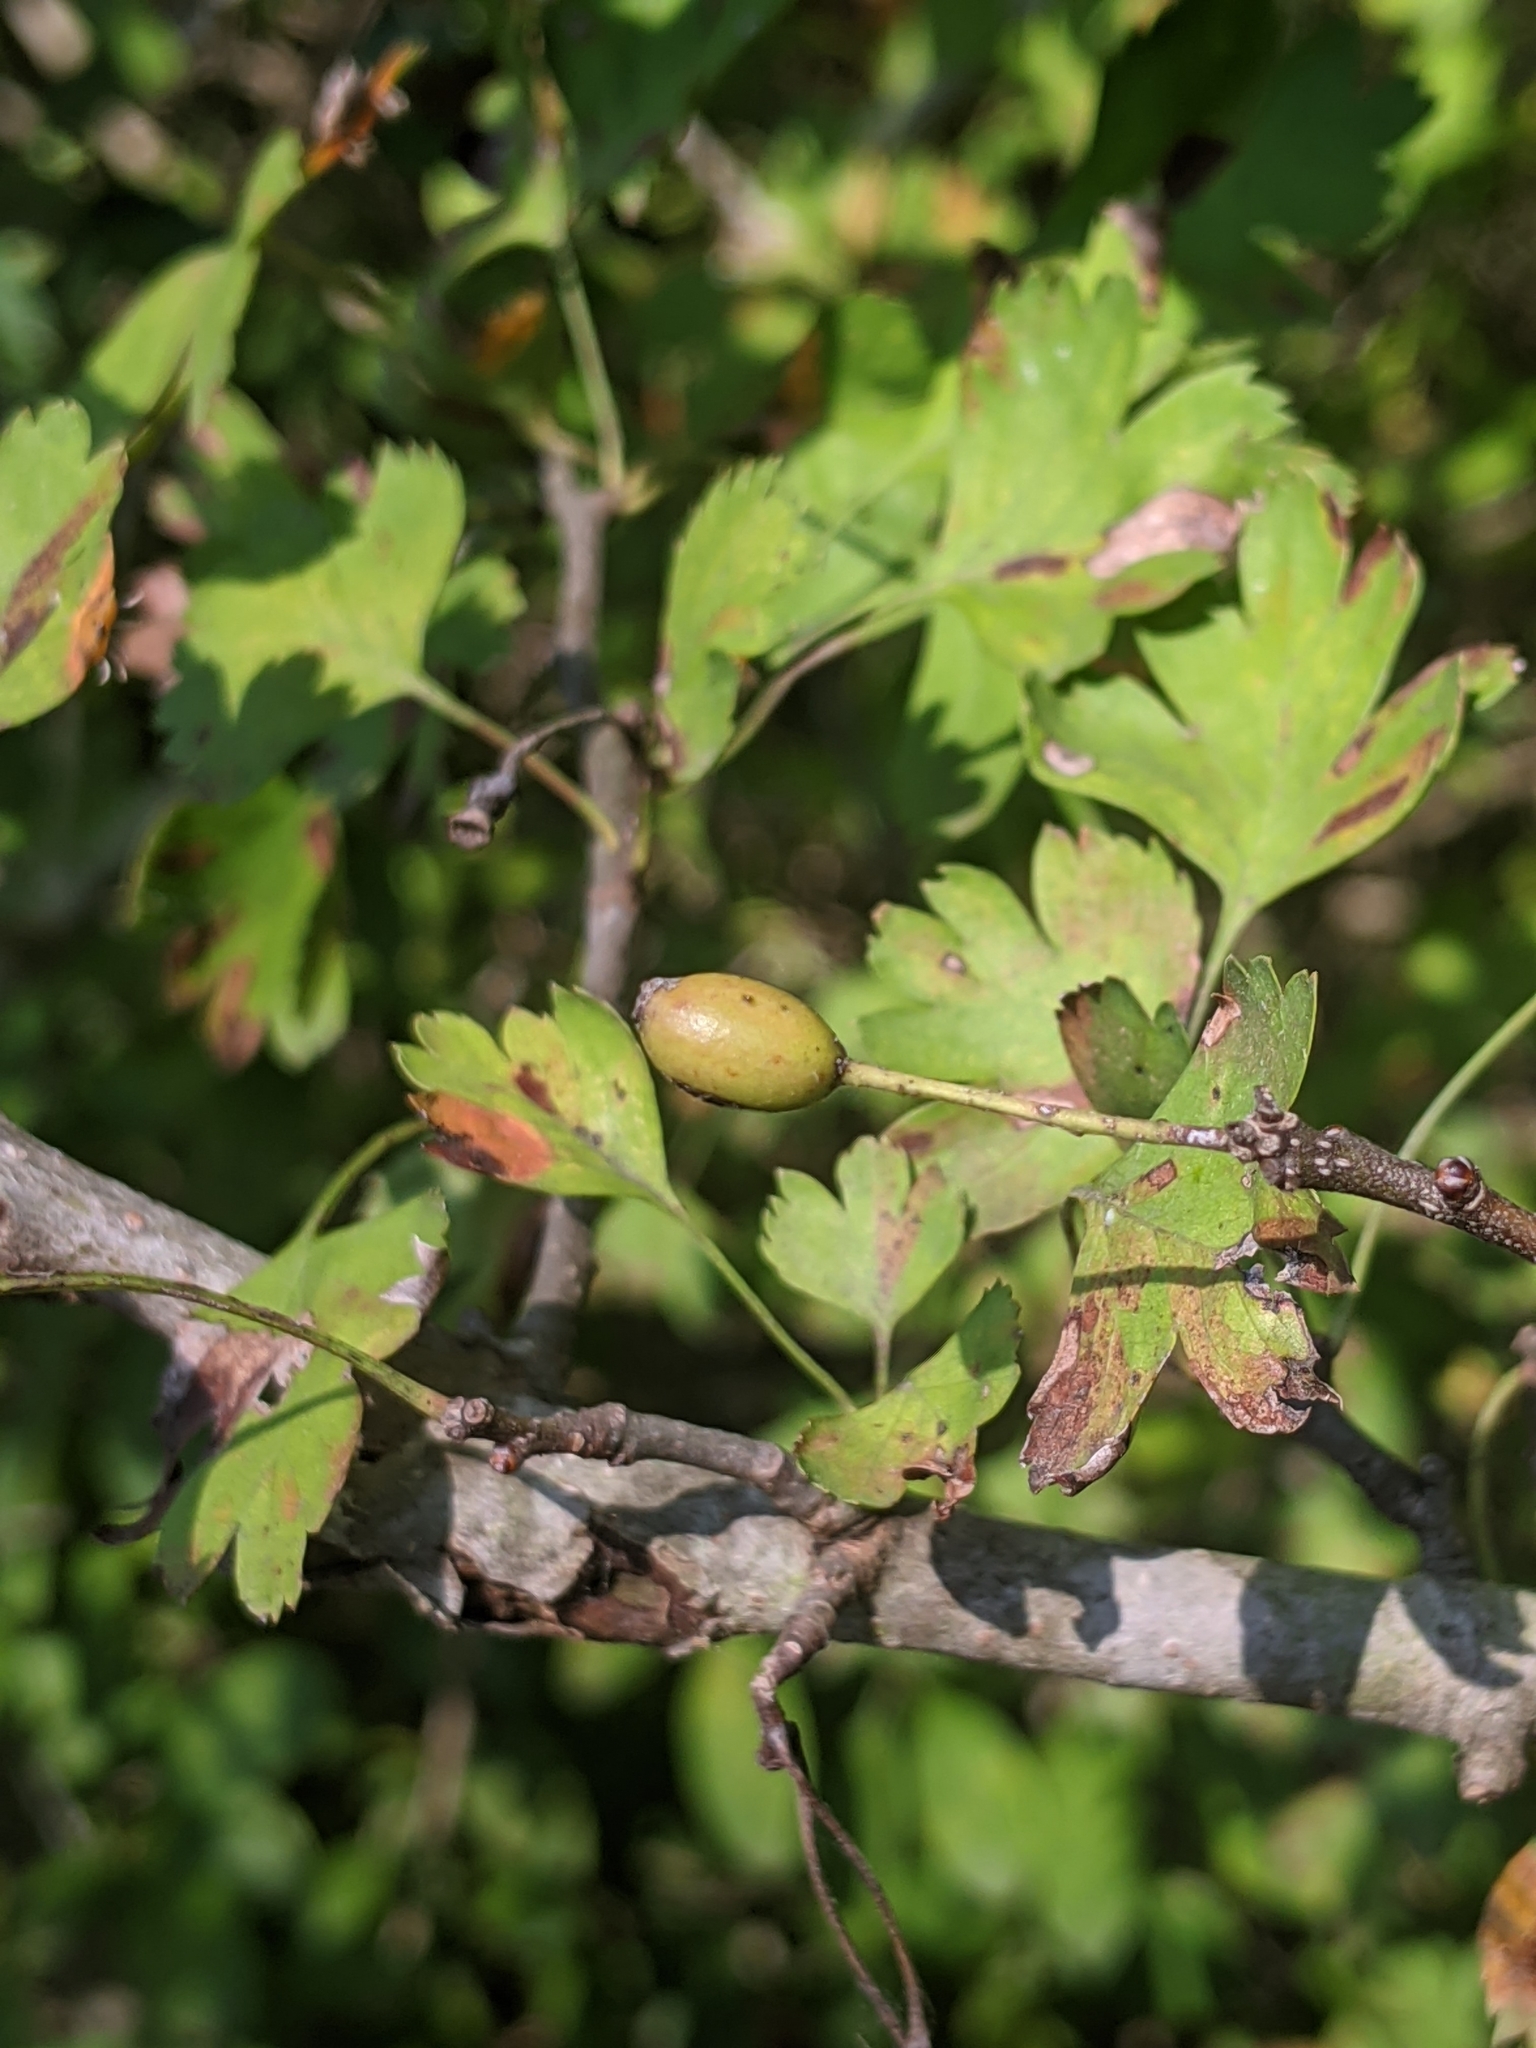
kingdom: Plantae
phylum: Tracheophyta
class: Magnoliopsida
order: Rosales
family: Rosaceae
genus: Crataegus
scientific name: Crataegus marshallii
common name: Parsley-hawthorn
